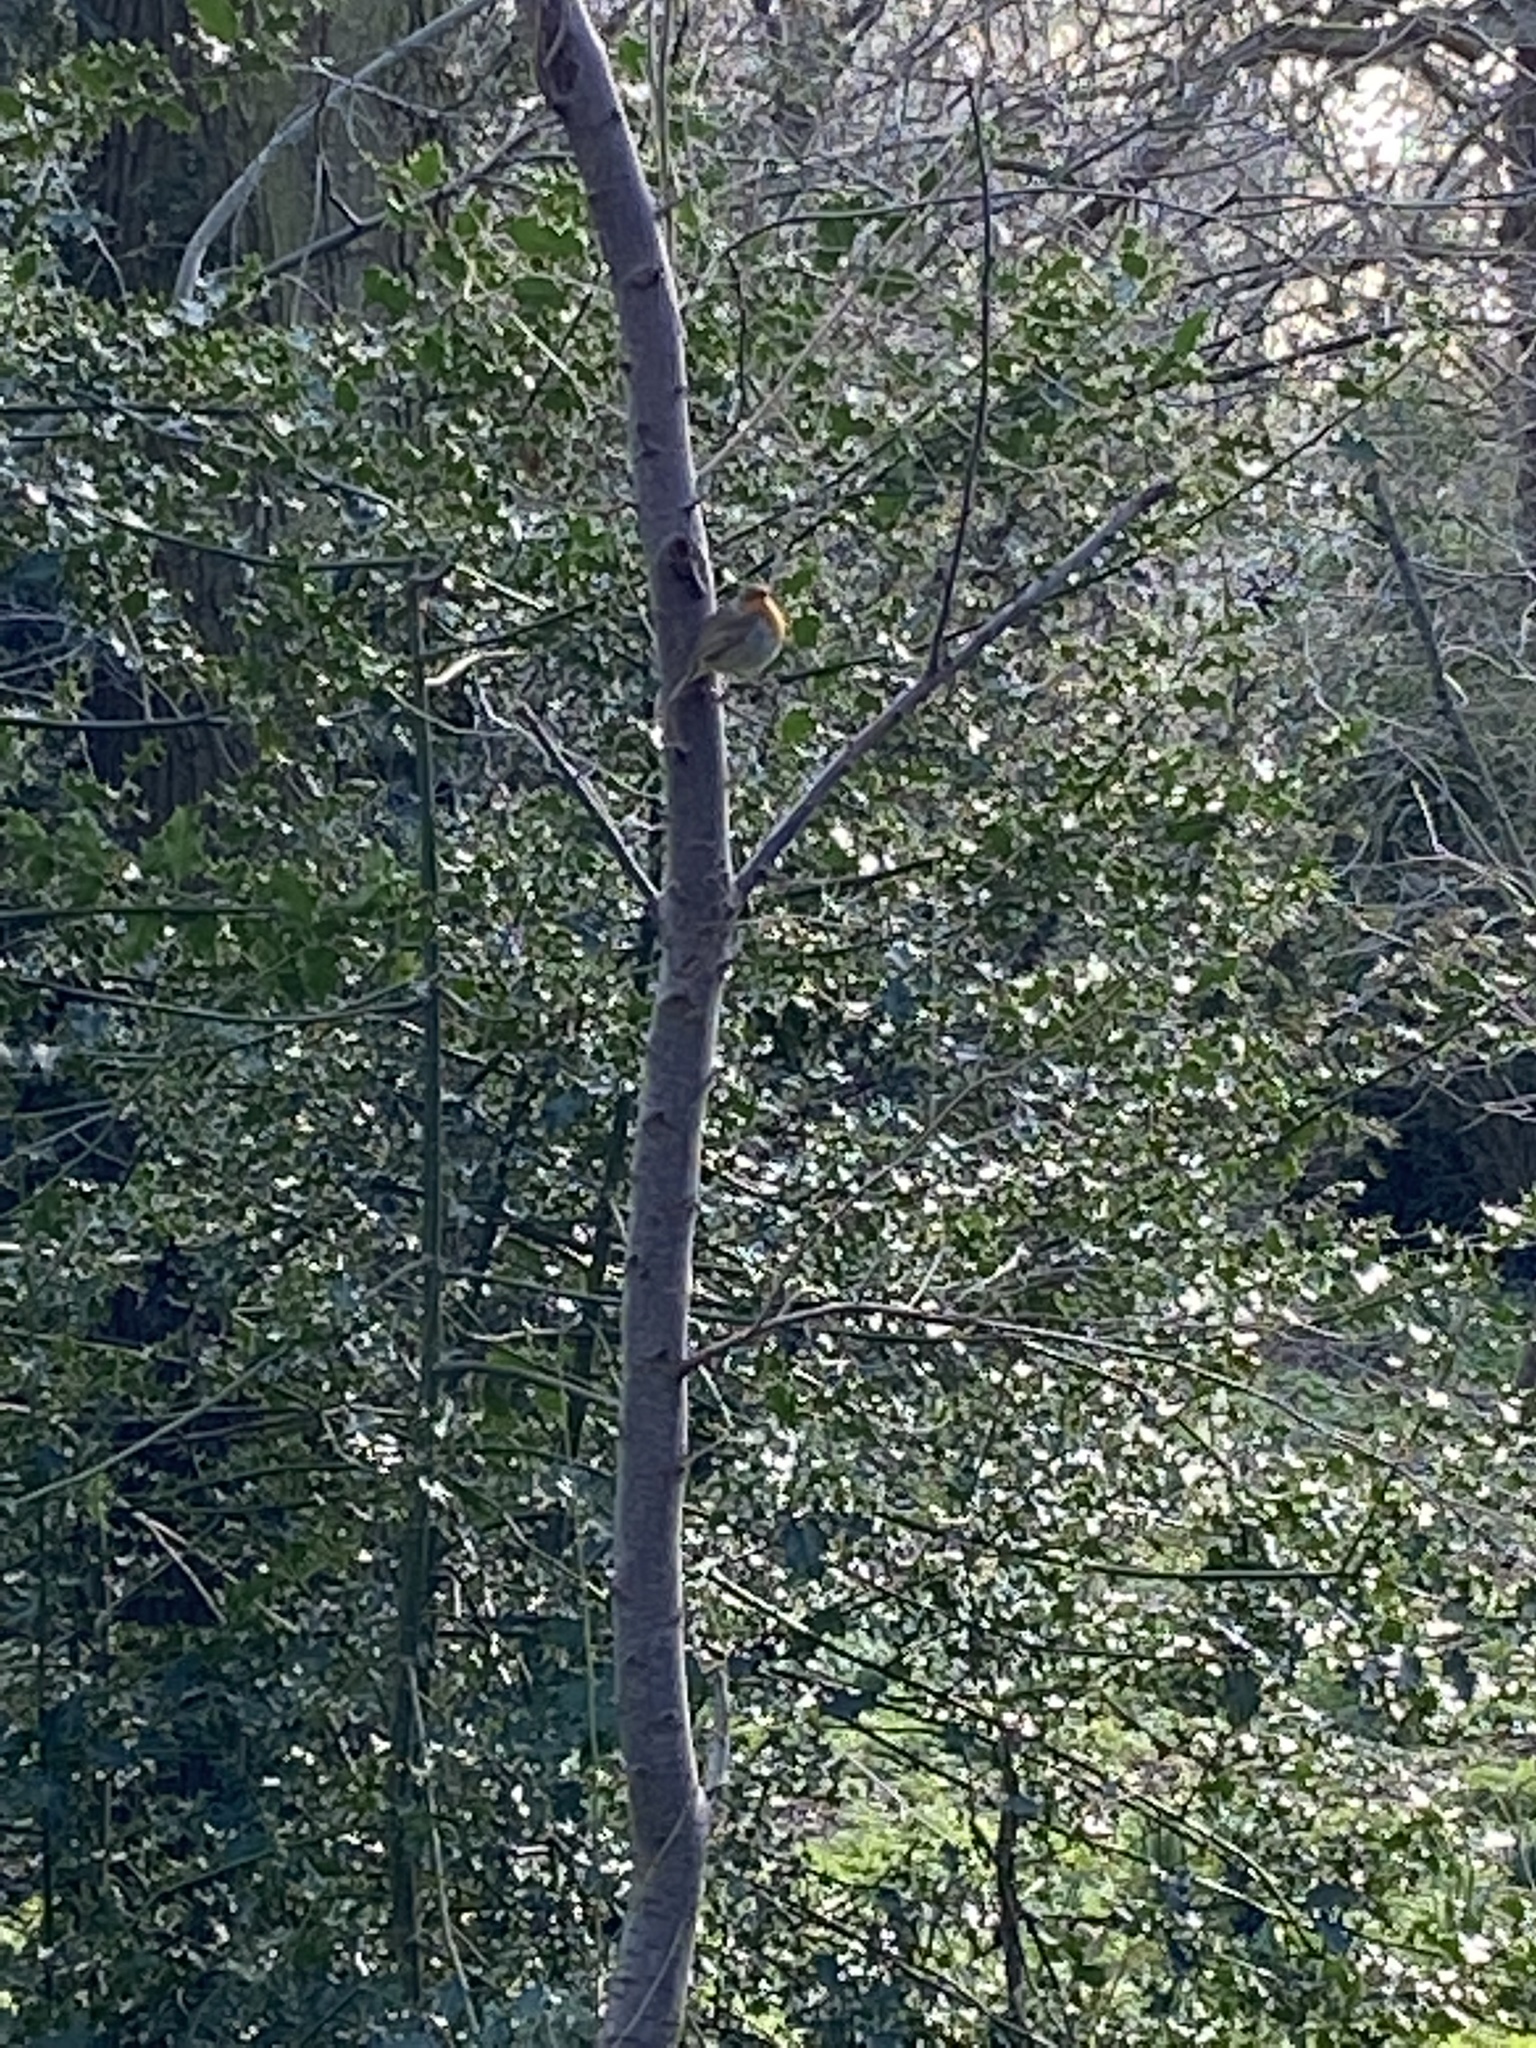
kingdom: Animalia
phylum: Chordata
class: Aves
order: Passeriformes
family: Muscicapidae
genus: Erithacus
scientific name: Erithacus rubecula
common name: European robin
